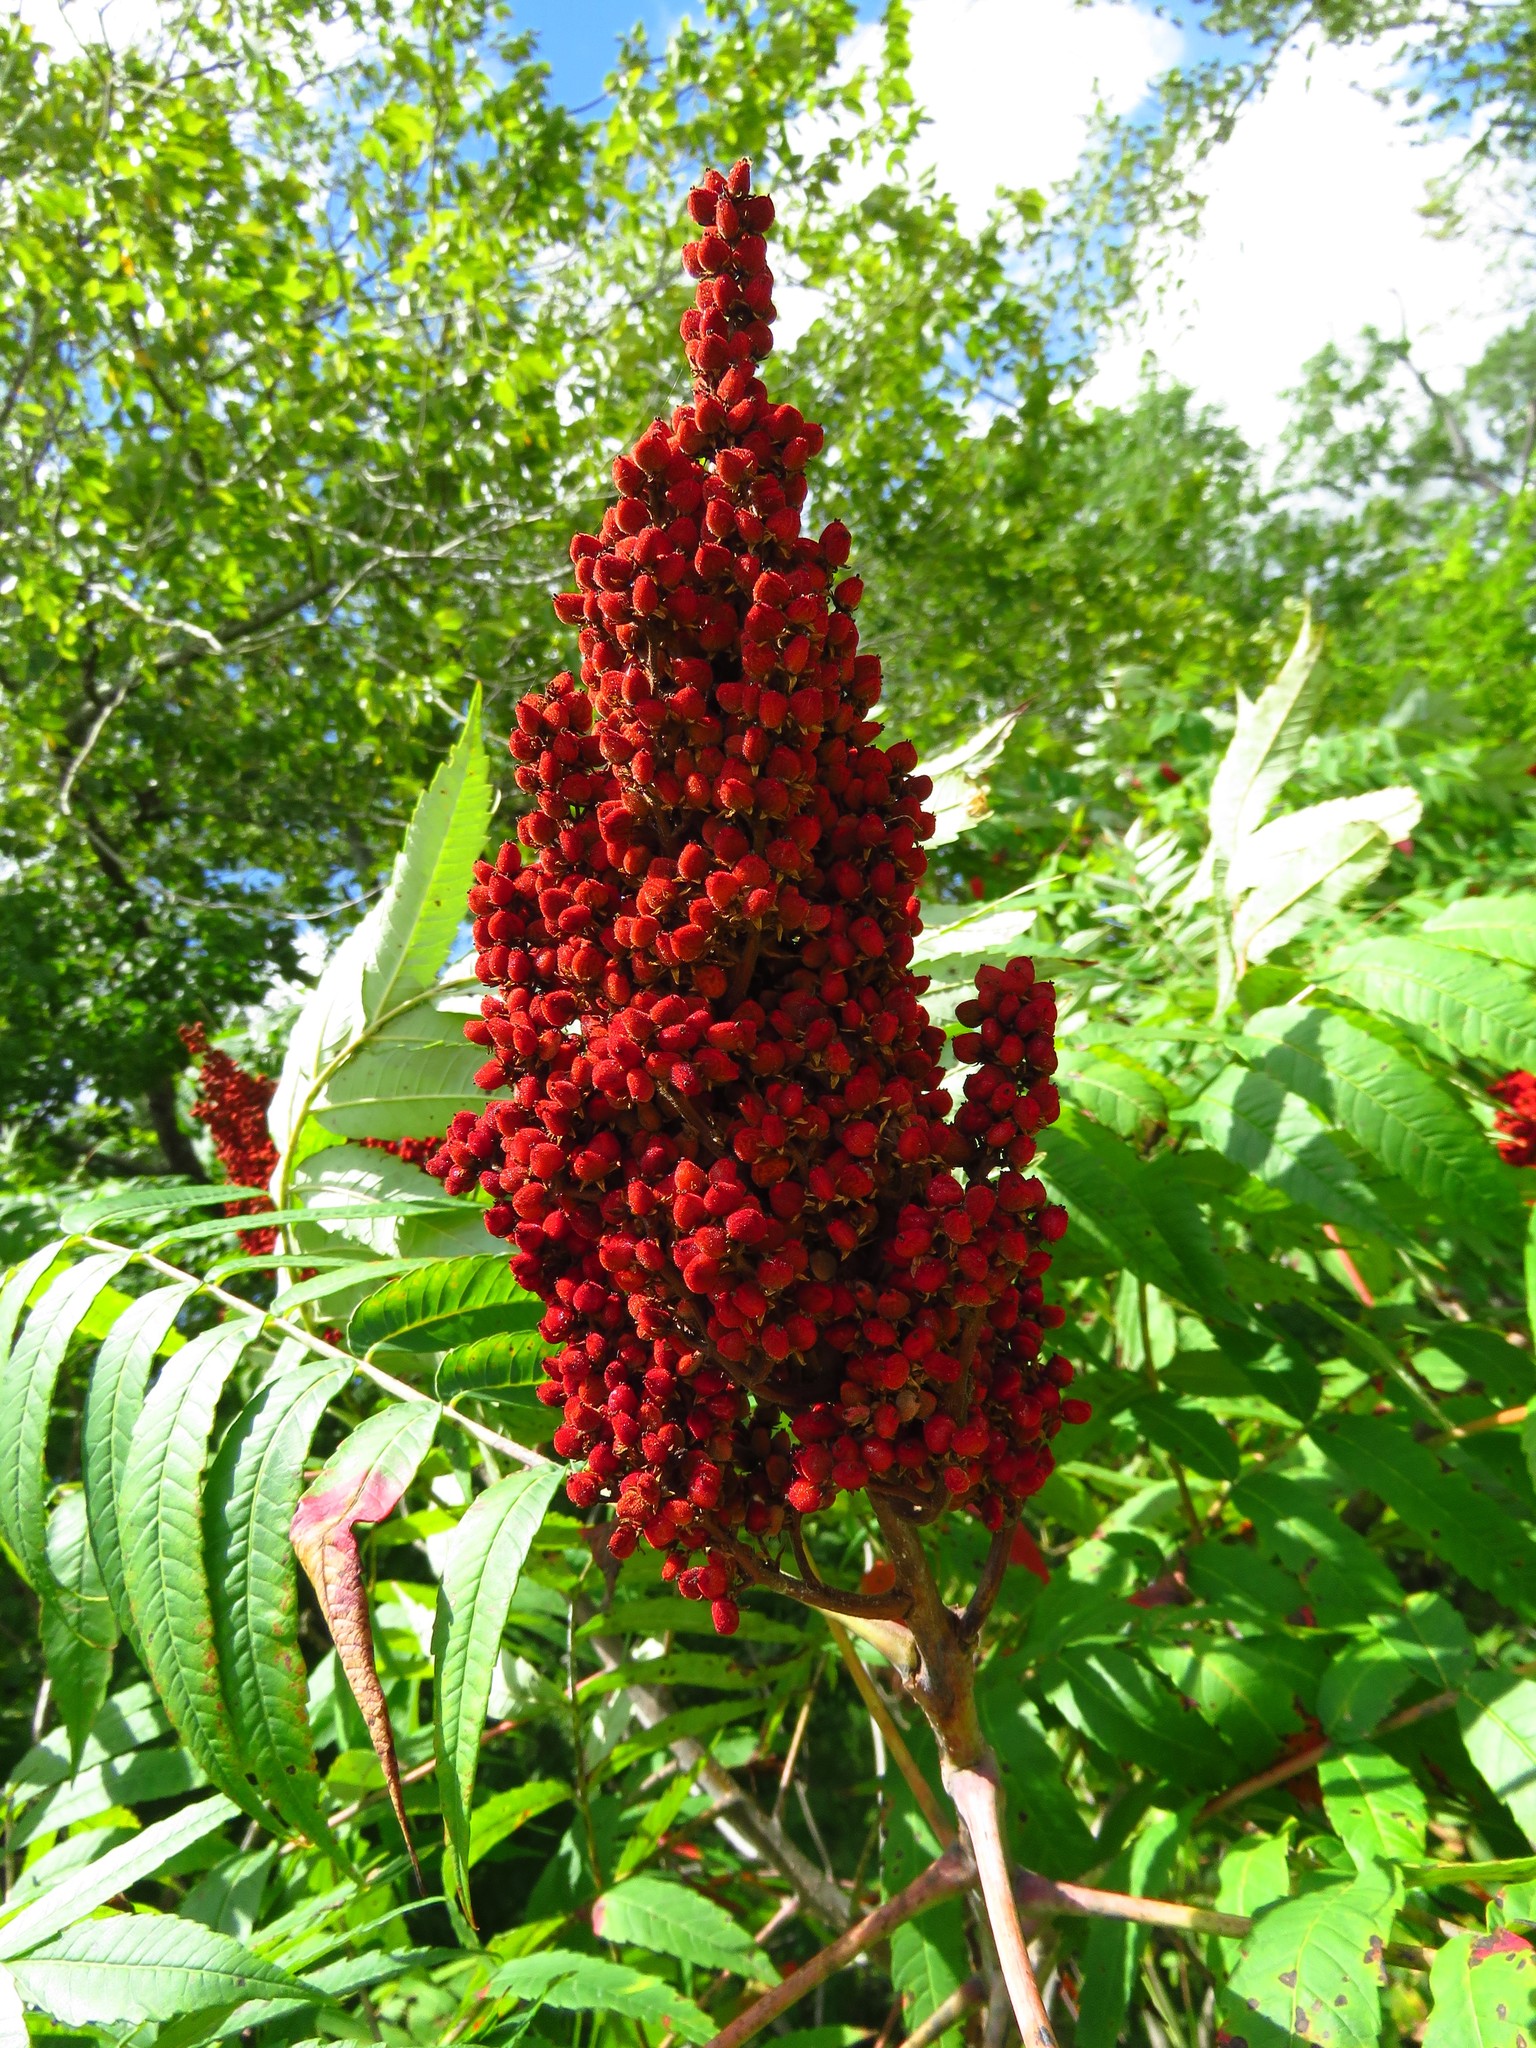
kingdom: Plantae
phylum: Tracheophyta
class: Magnoliopsida
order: Sapindales
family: Anacardiaceae
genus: Rhus
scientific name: Rhus glabra
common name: Scarlet sumac
